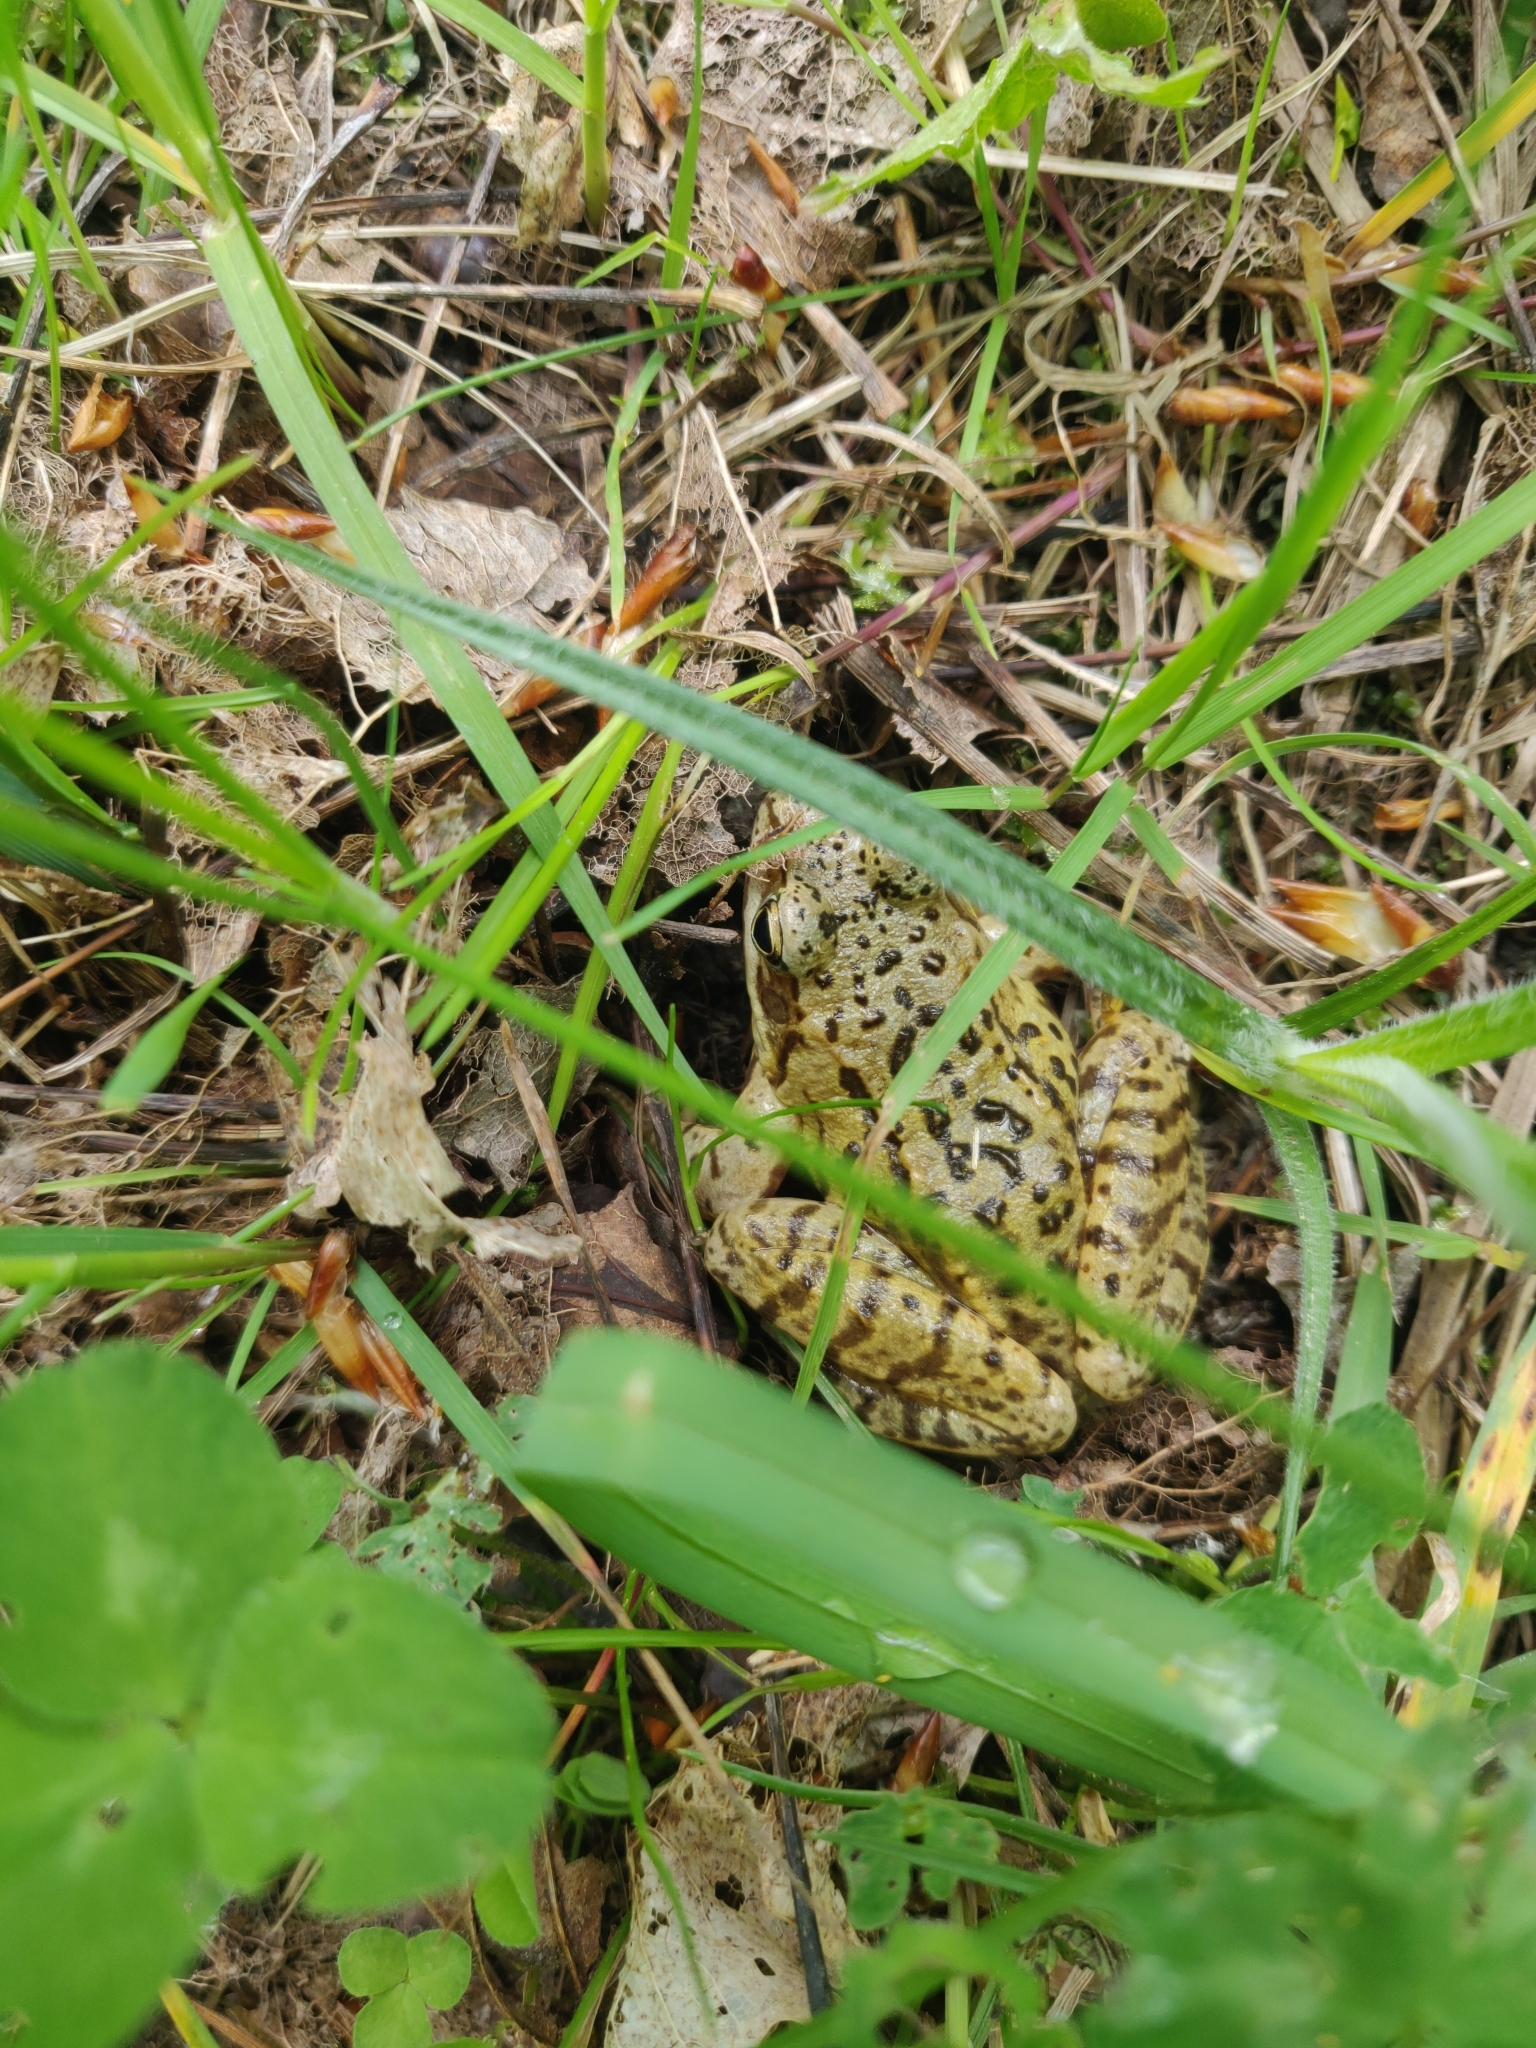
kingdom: Animalia
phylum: Chordata
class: Amphibia
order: Anura
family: Ranidae
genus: Rana
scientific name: Rana temporaria
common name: Common frog
